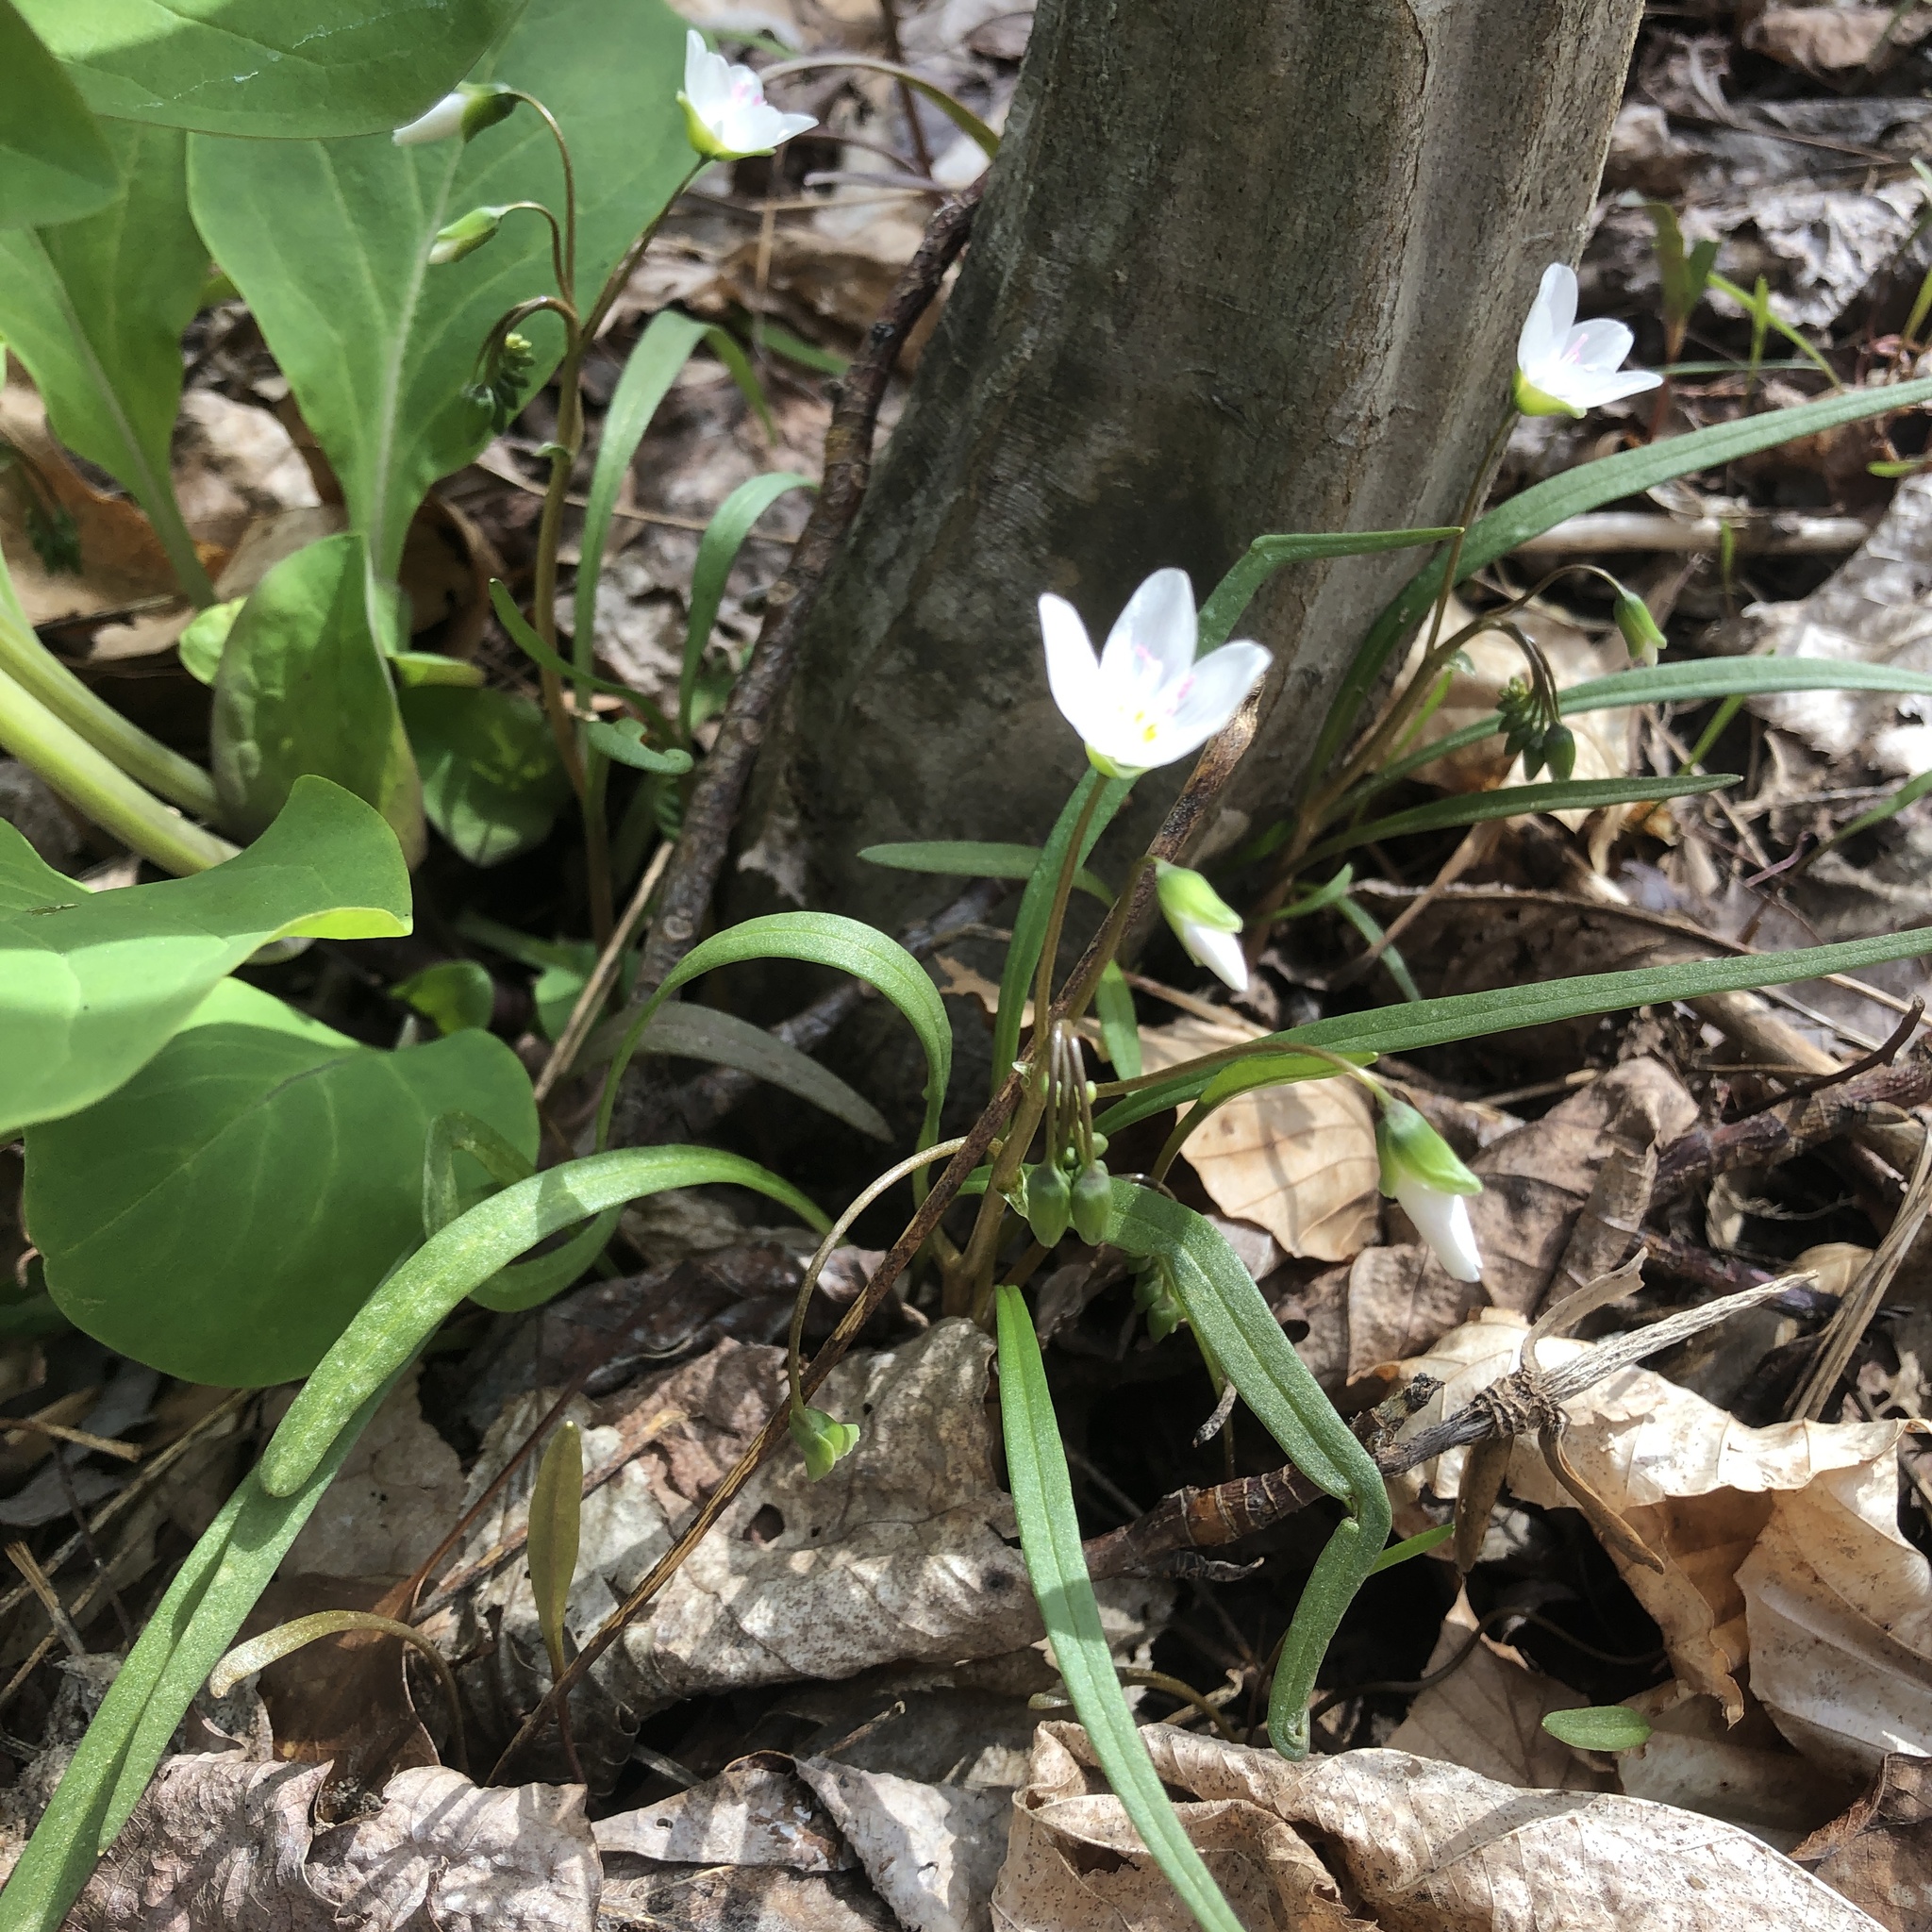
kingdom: Plantae
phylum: Tracheophyta
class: Magnoliopsida
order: Caryophyllales
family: Montiaceae
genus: Claytonia
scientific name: Claytonia virginica
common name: Virginia springbeauty
